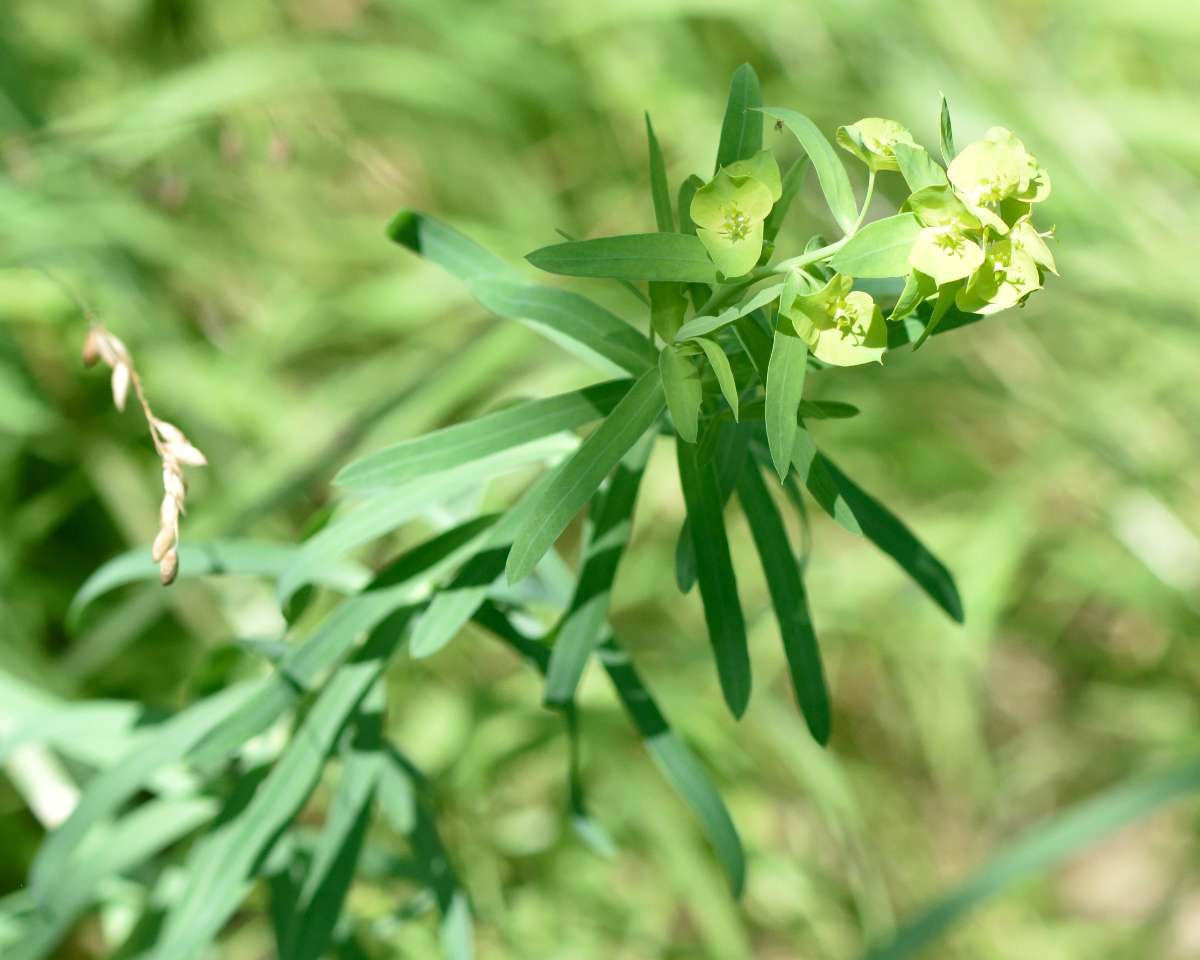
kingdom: Plantae
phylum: Tracheophyta
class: Magnoliopsida
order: Malpighiales
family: Euphorbiaceae
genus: Euphorbia
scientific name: Euphorbia virgata
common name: Leafy spurge
